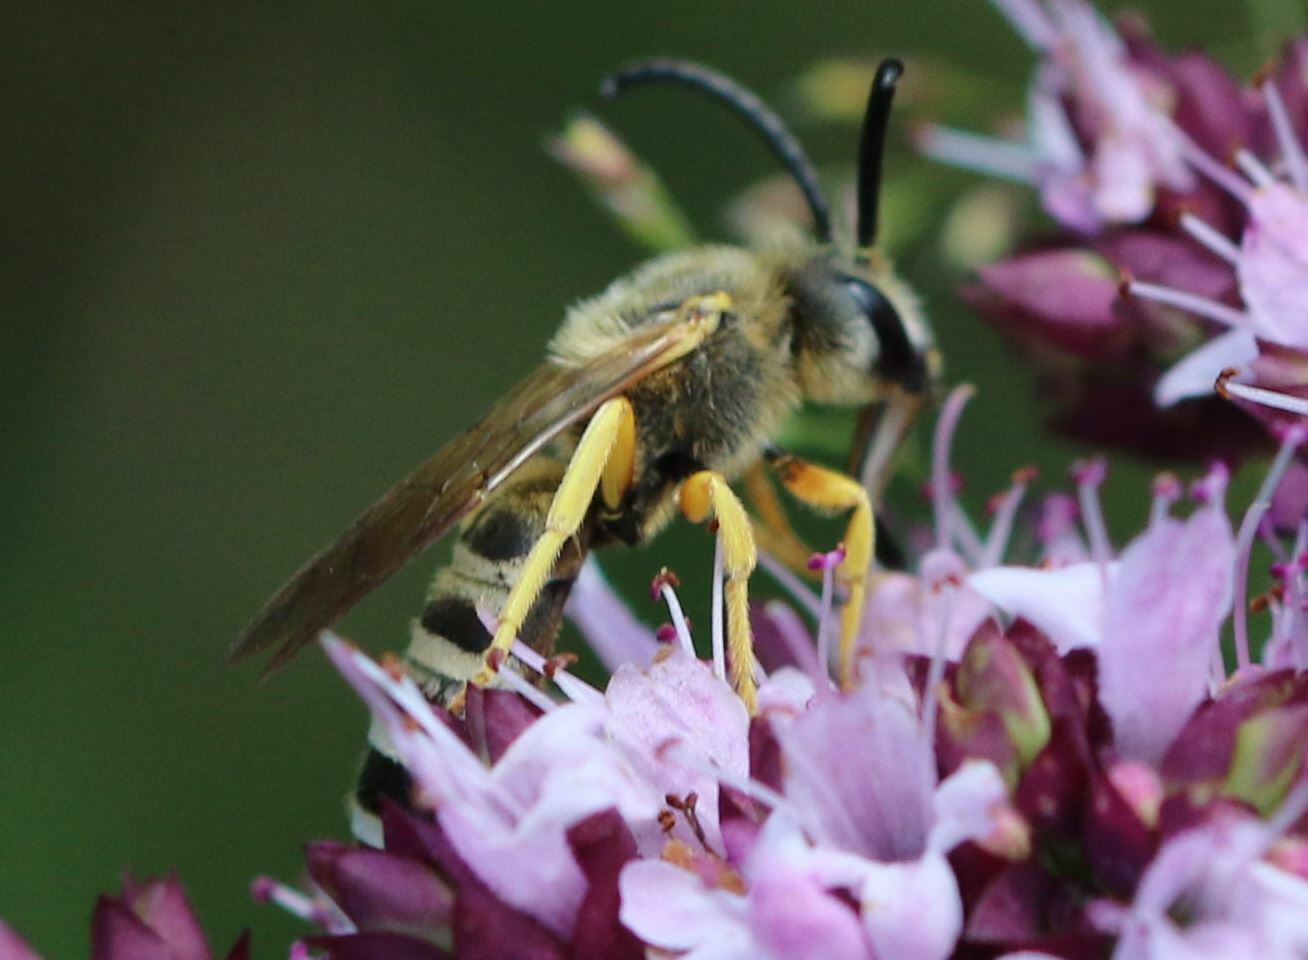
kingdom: Animalia
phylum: Arthropoda
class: Insecta
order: Hymenoptera
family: Halictidae
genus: Halictus
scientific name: Halictus scabiosae
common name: Great banded furrow bee
